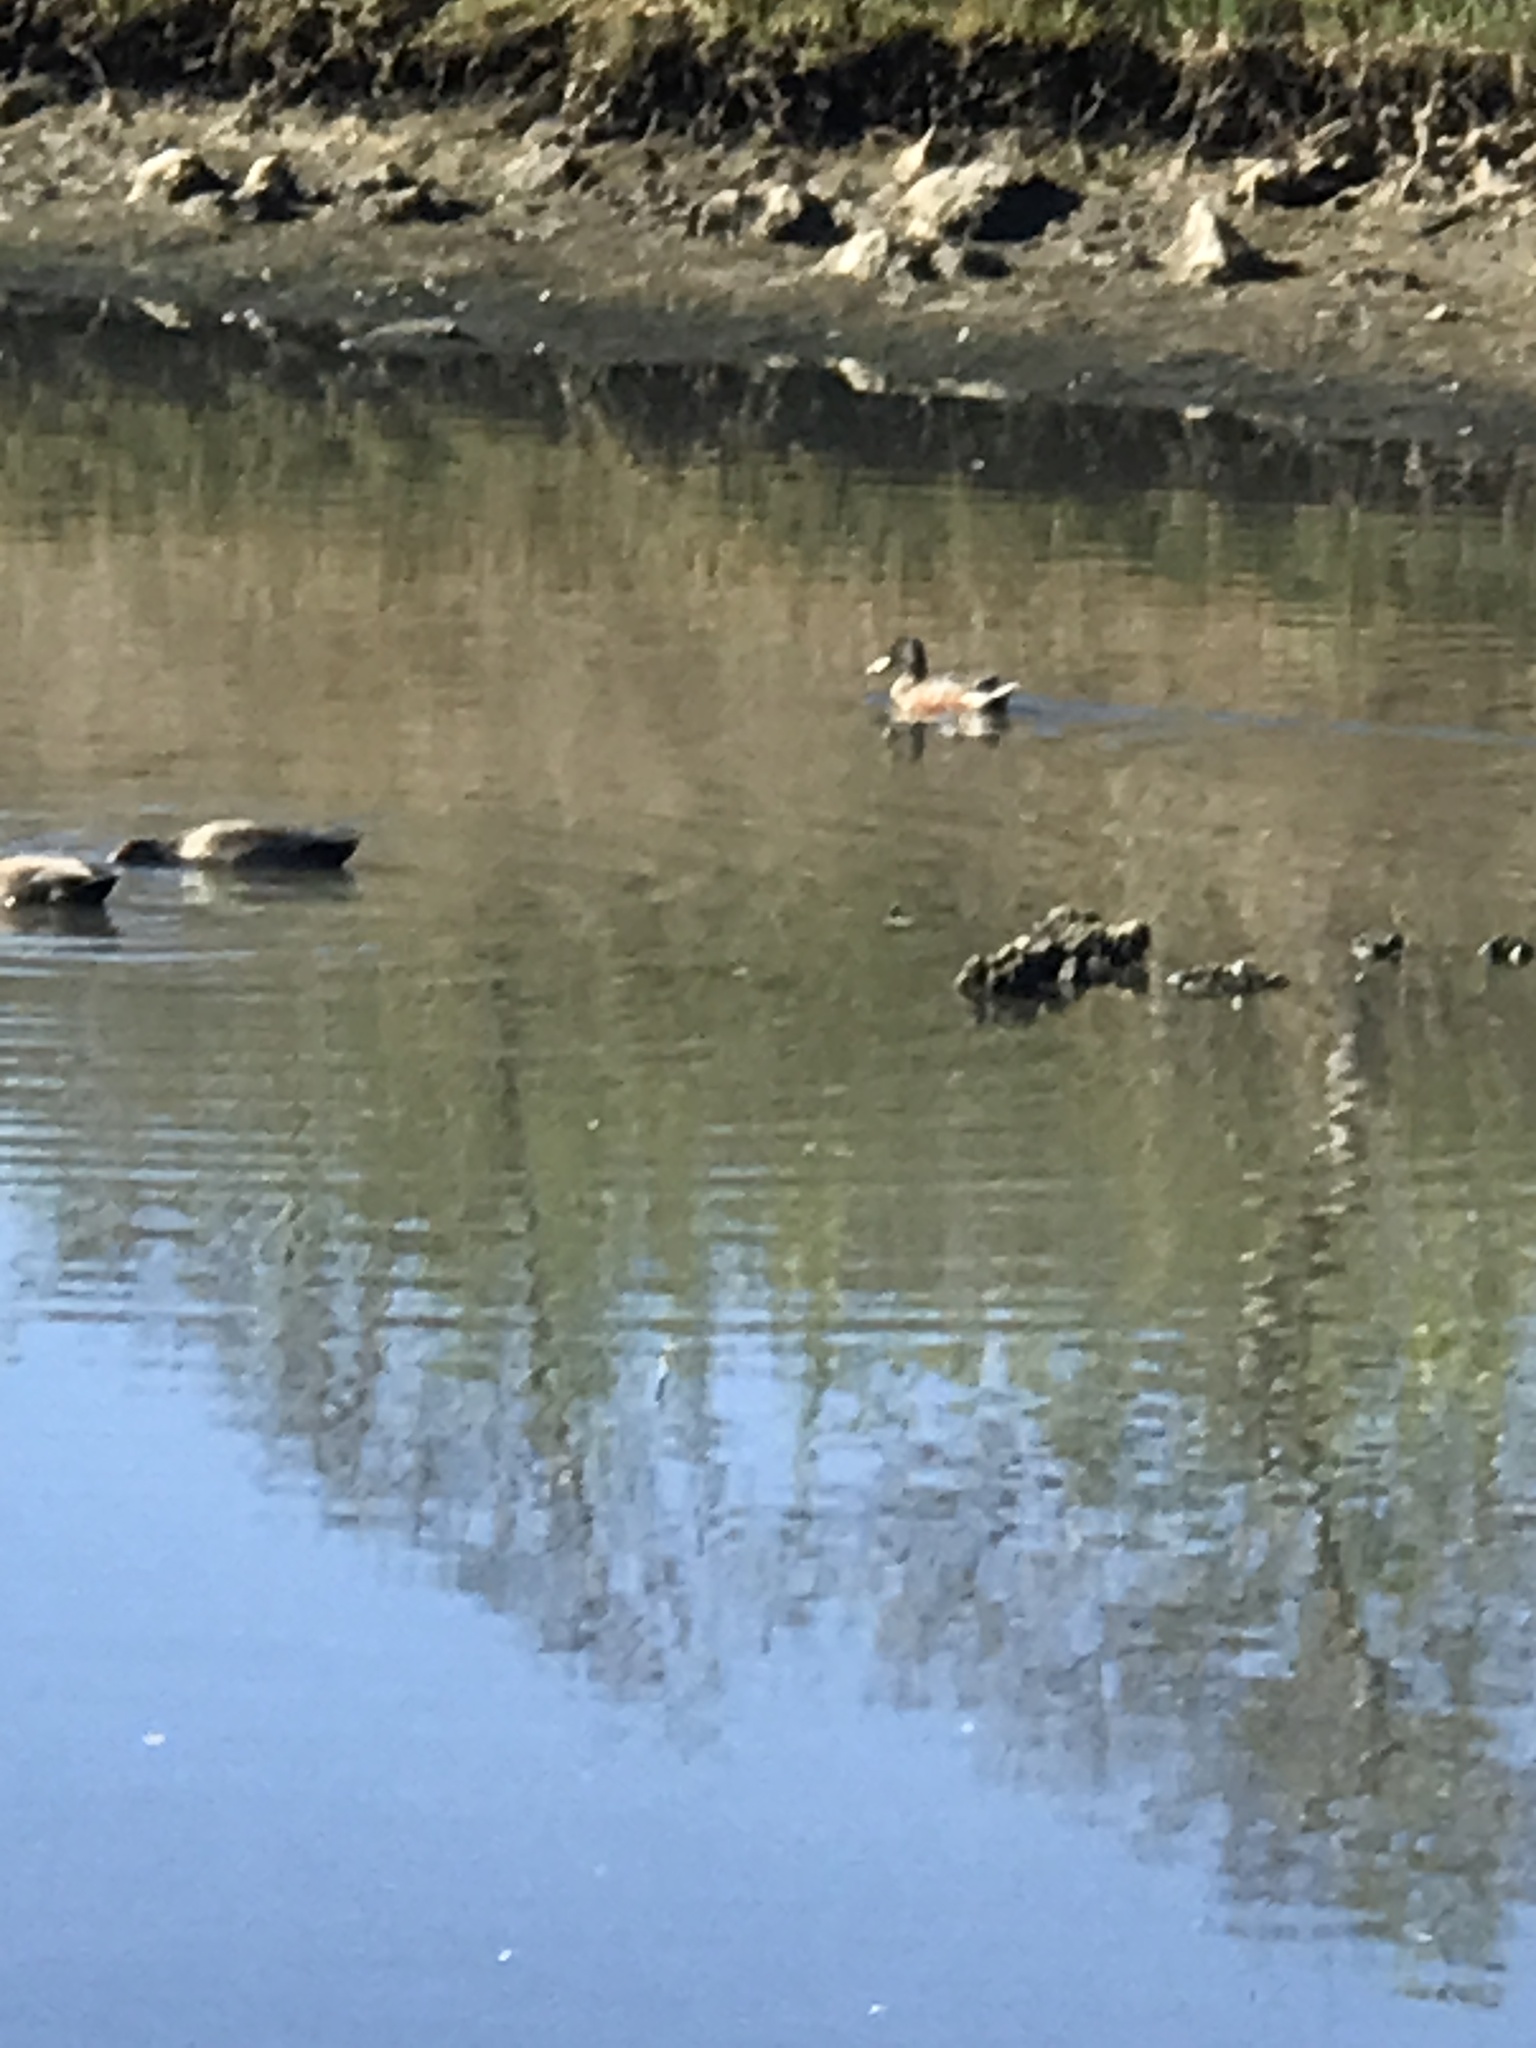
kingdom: Animalia
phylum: Chordata
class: Aves
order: Anseriformes
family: Anatidae
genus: Spatula
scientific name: Spatula clypeata
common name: Northern shoveler
